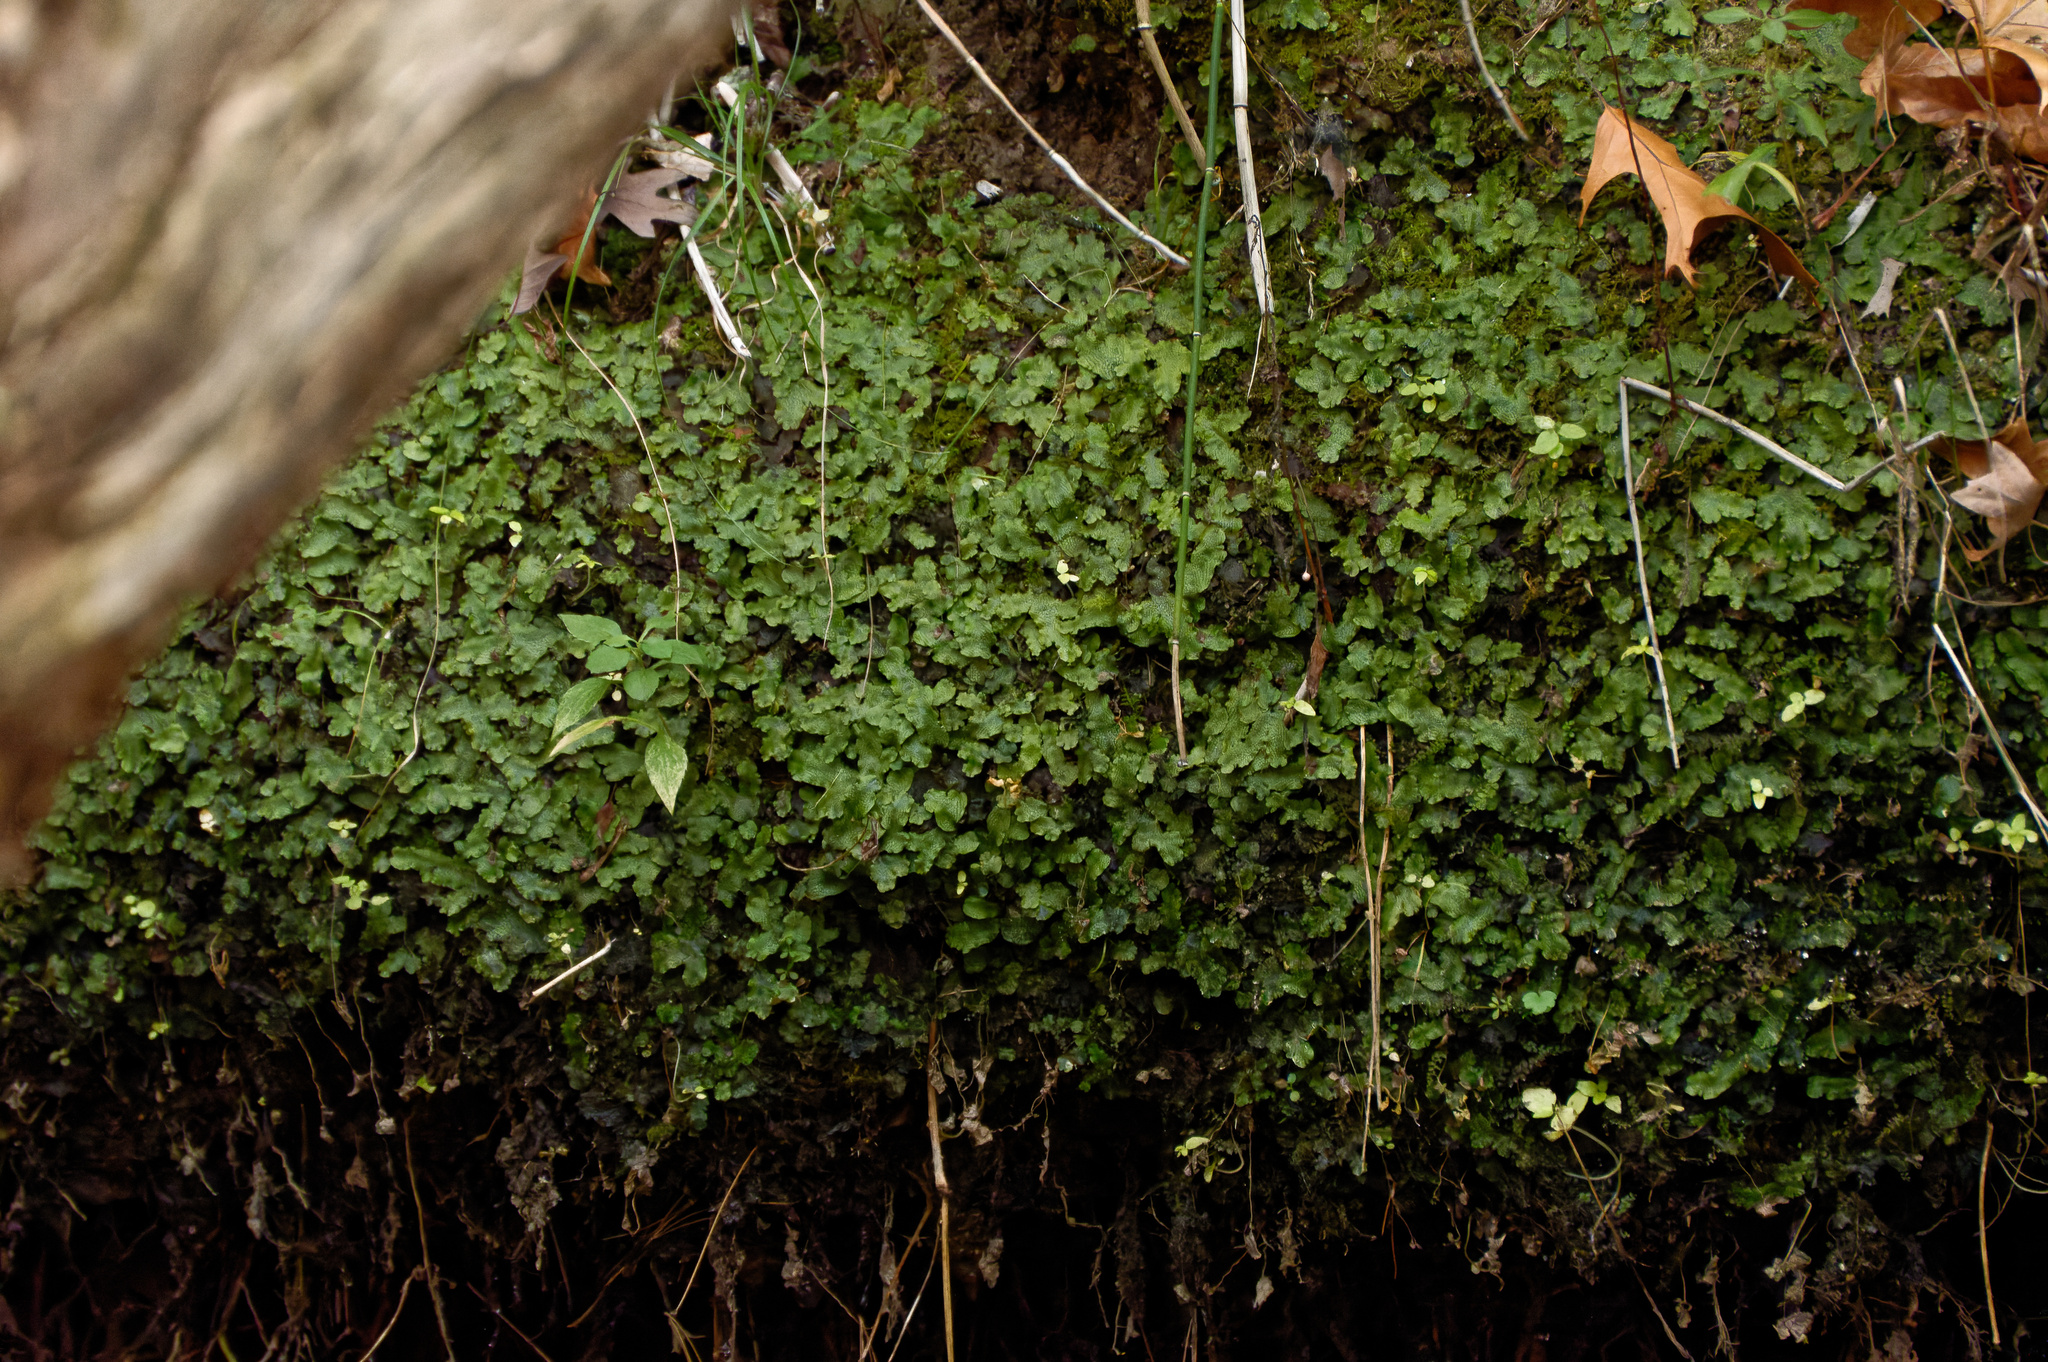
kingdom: Plantae
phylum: Marchantiophyta
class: Marchantiopsida
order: Marchantiales
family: Conocephalaceae
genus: Conocephalum
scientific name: Conocephalum salebrosum
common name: Cat-tongue liverwort
